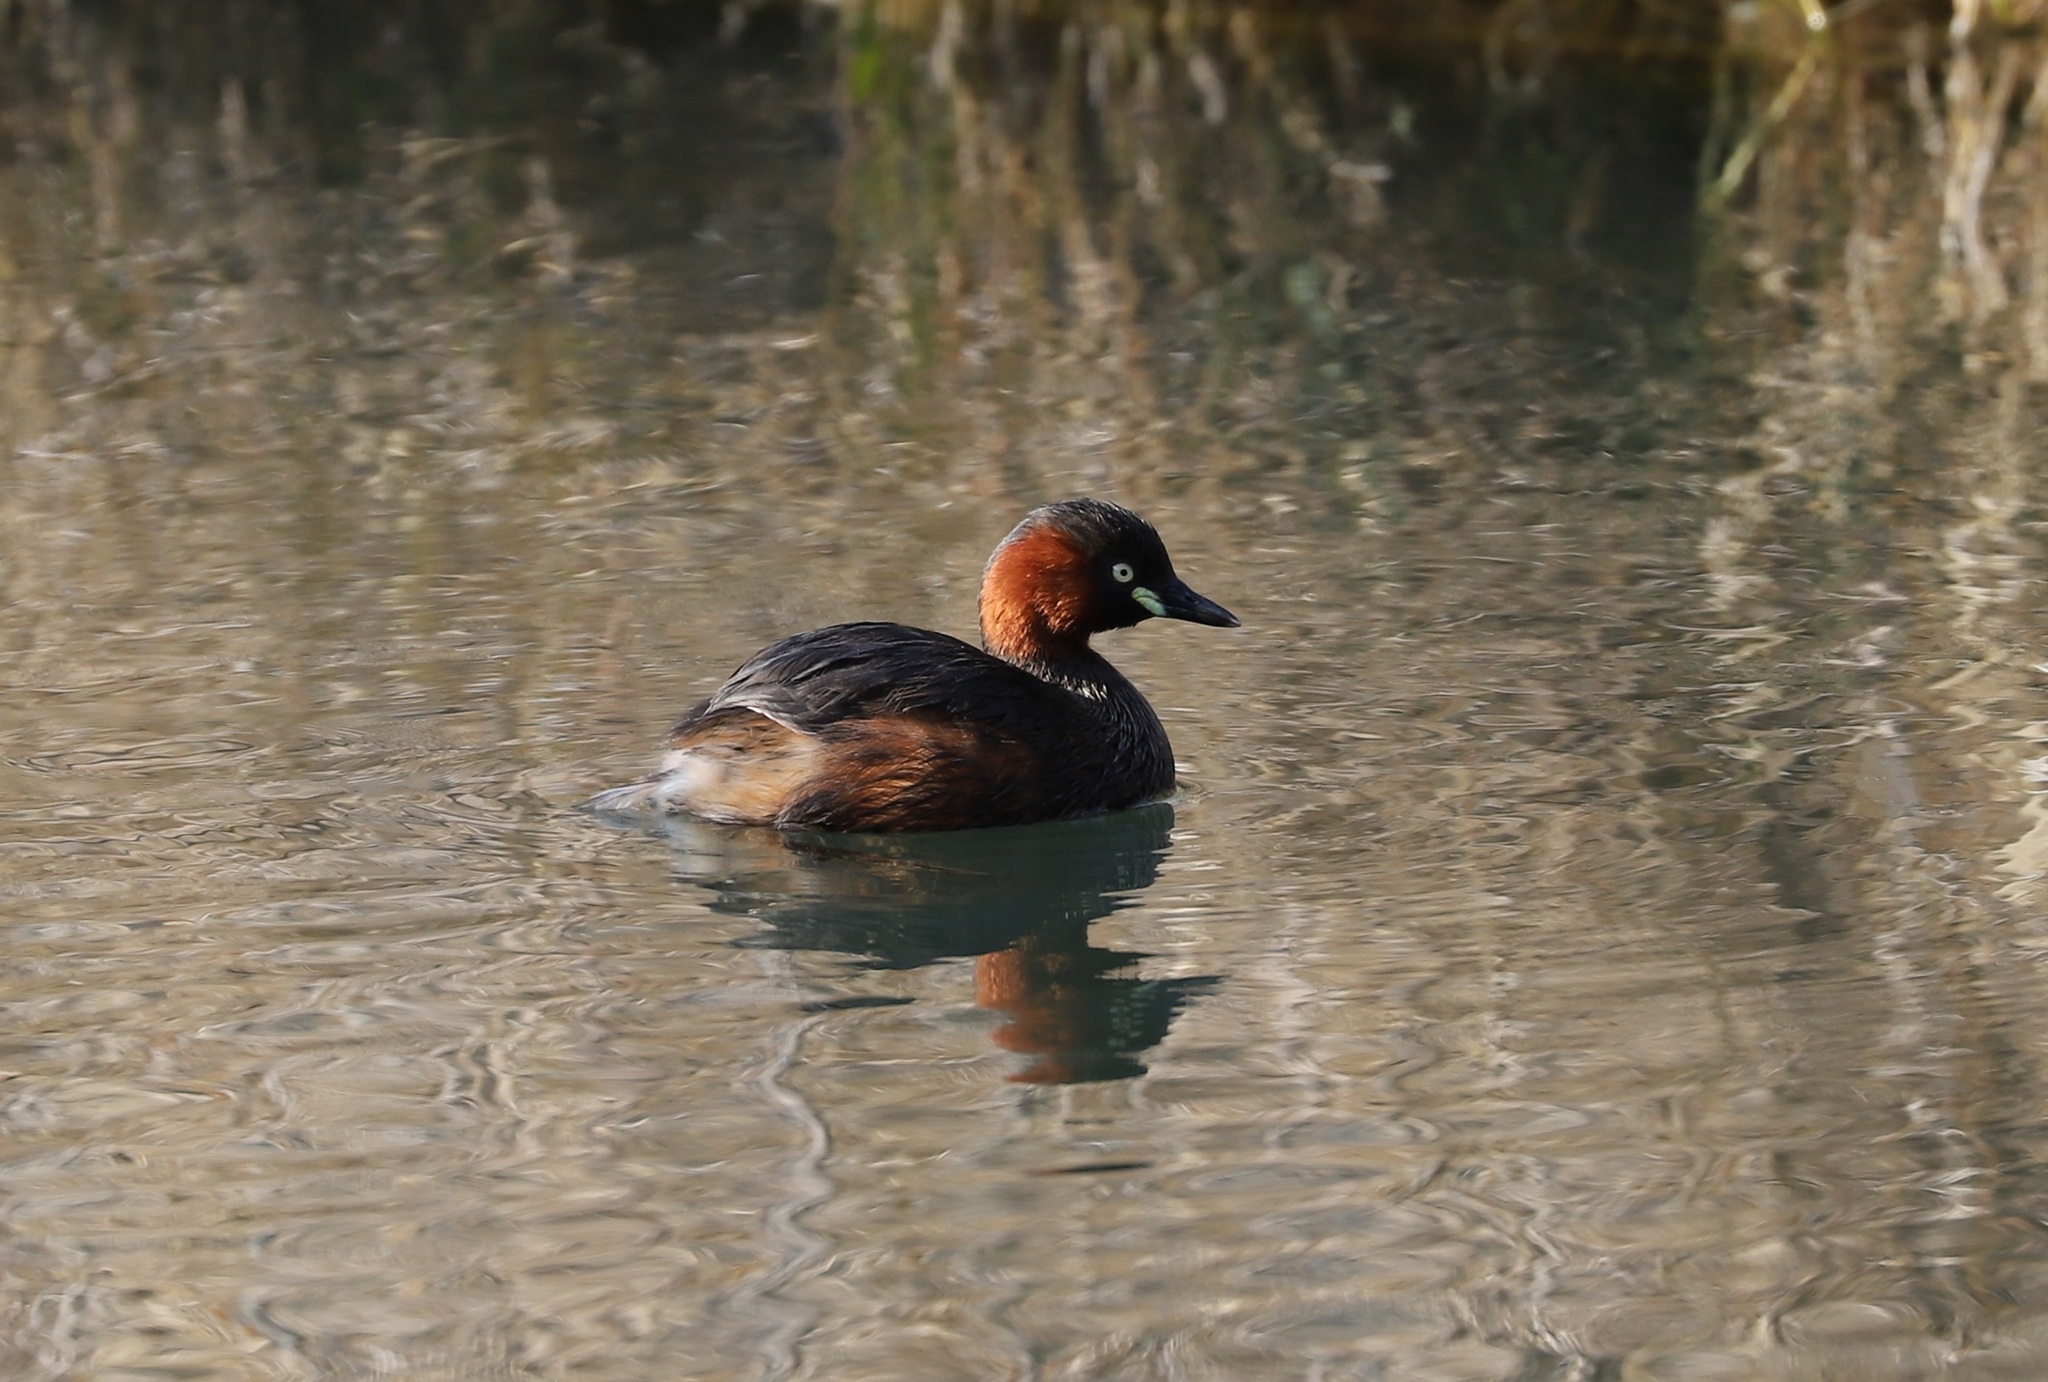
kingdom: Animalia
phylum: Chordata
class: Aves
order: Podicipediformes
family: Podicipedidae
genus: Tachybaptus
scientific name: Tachybaptus ruficollis
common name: Little grebe
